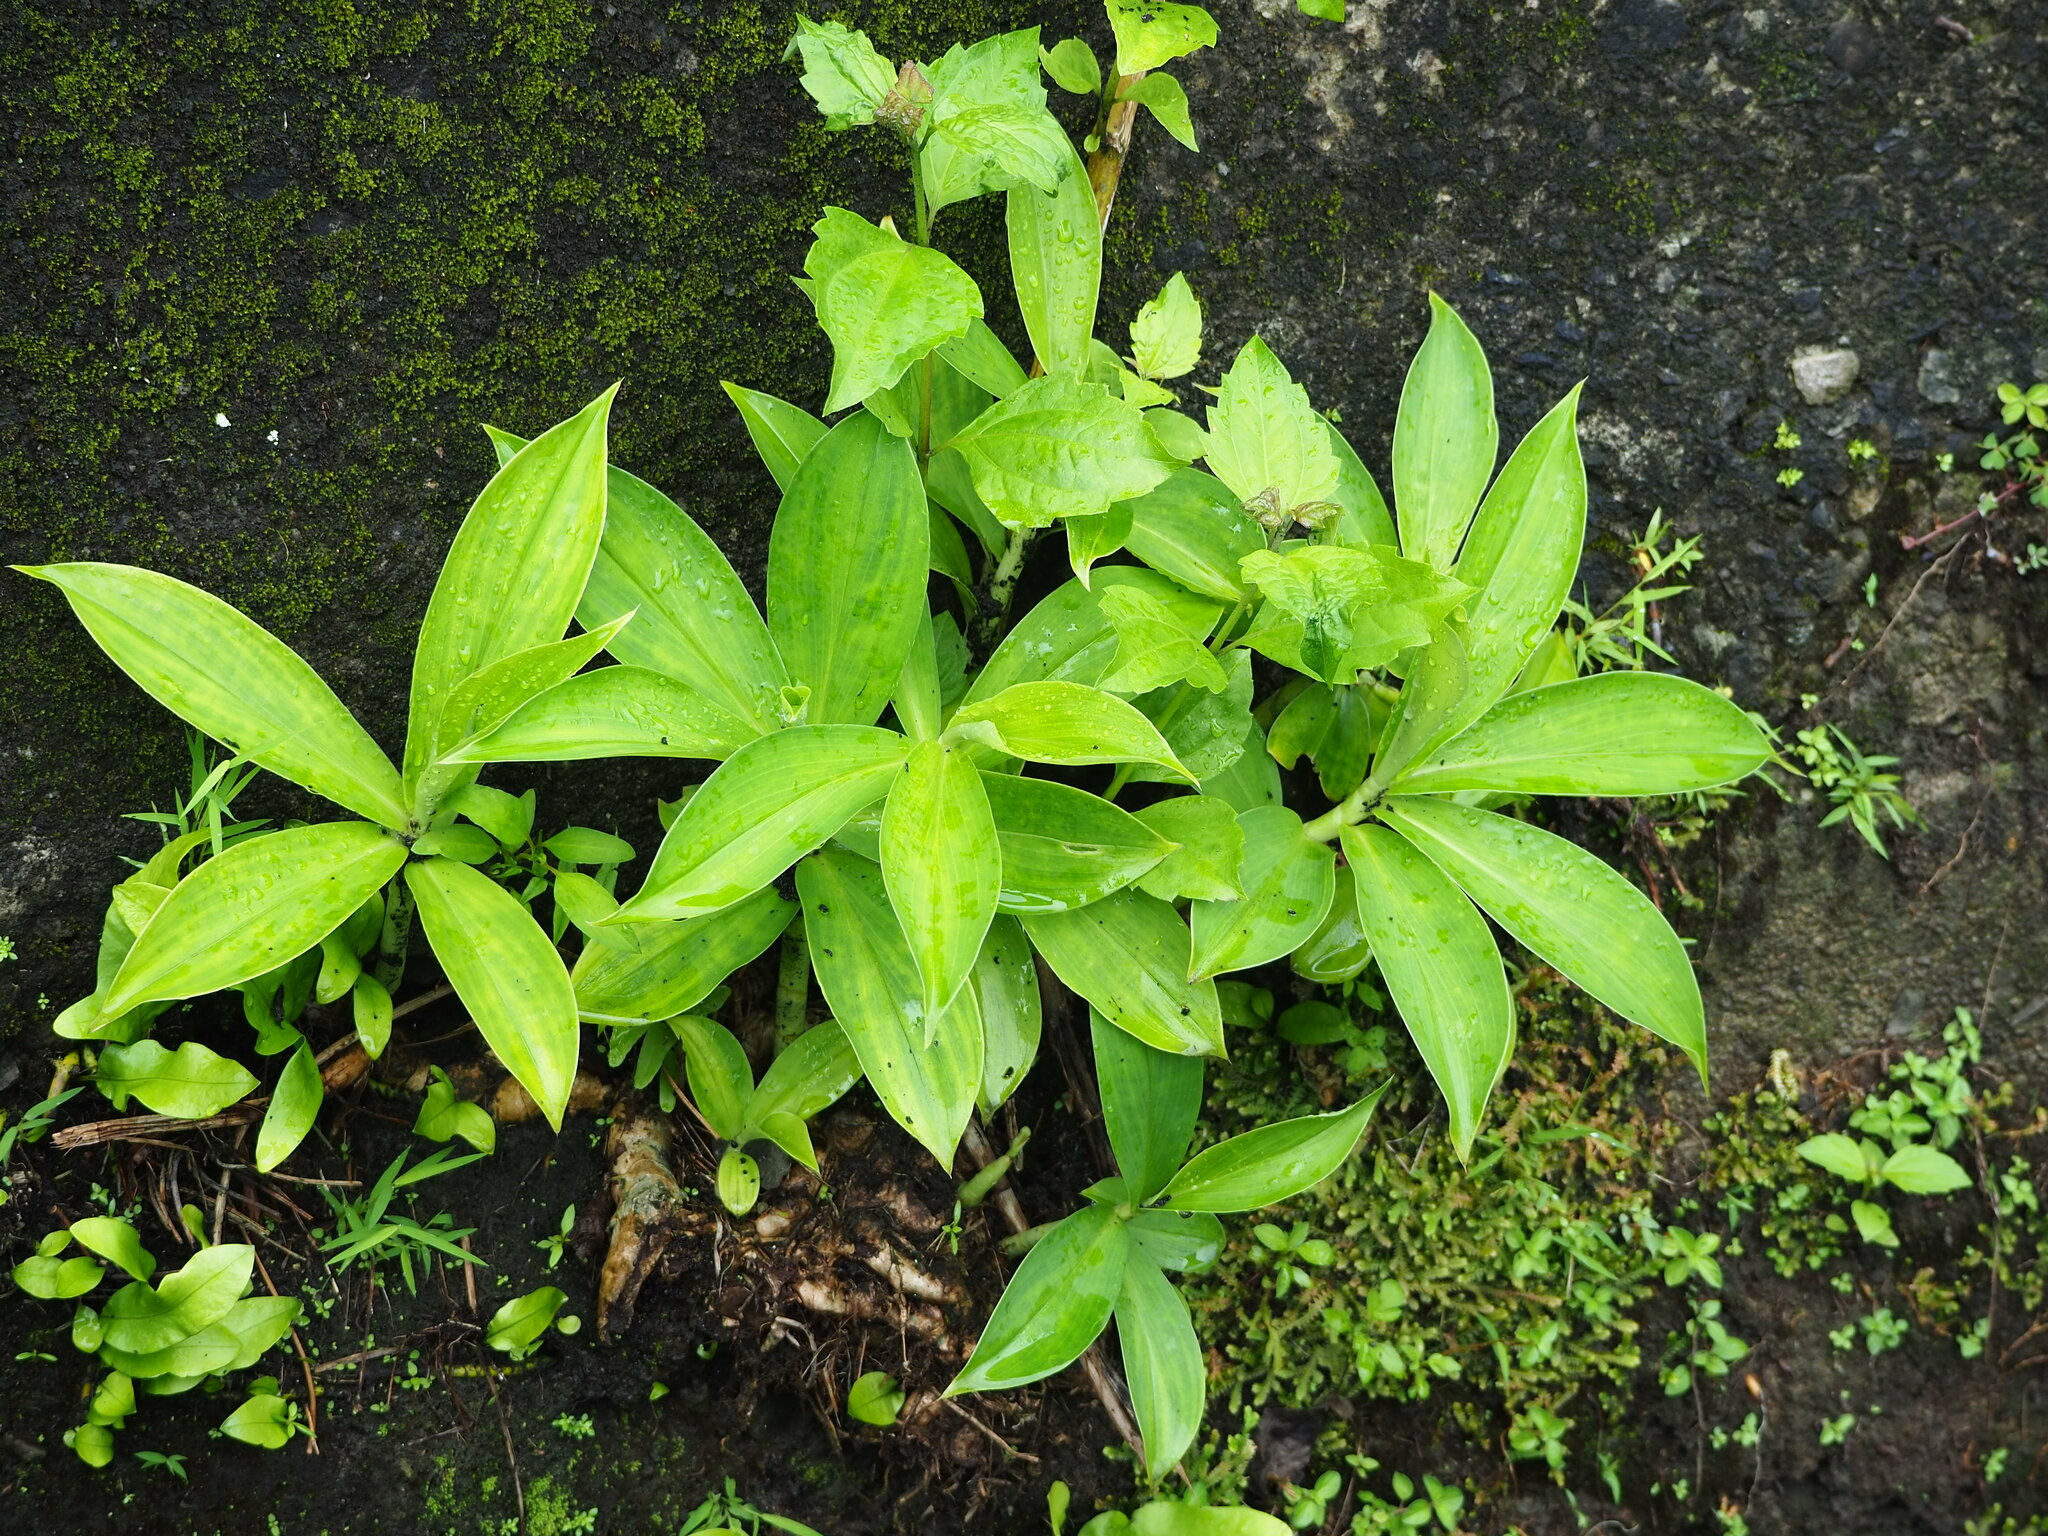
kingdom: Plantae
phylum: Tracheophyta
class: Liliopsida
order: Zingiberales
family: Costaceae
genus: Hellenia
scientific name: Hellenia speciosa
